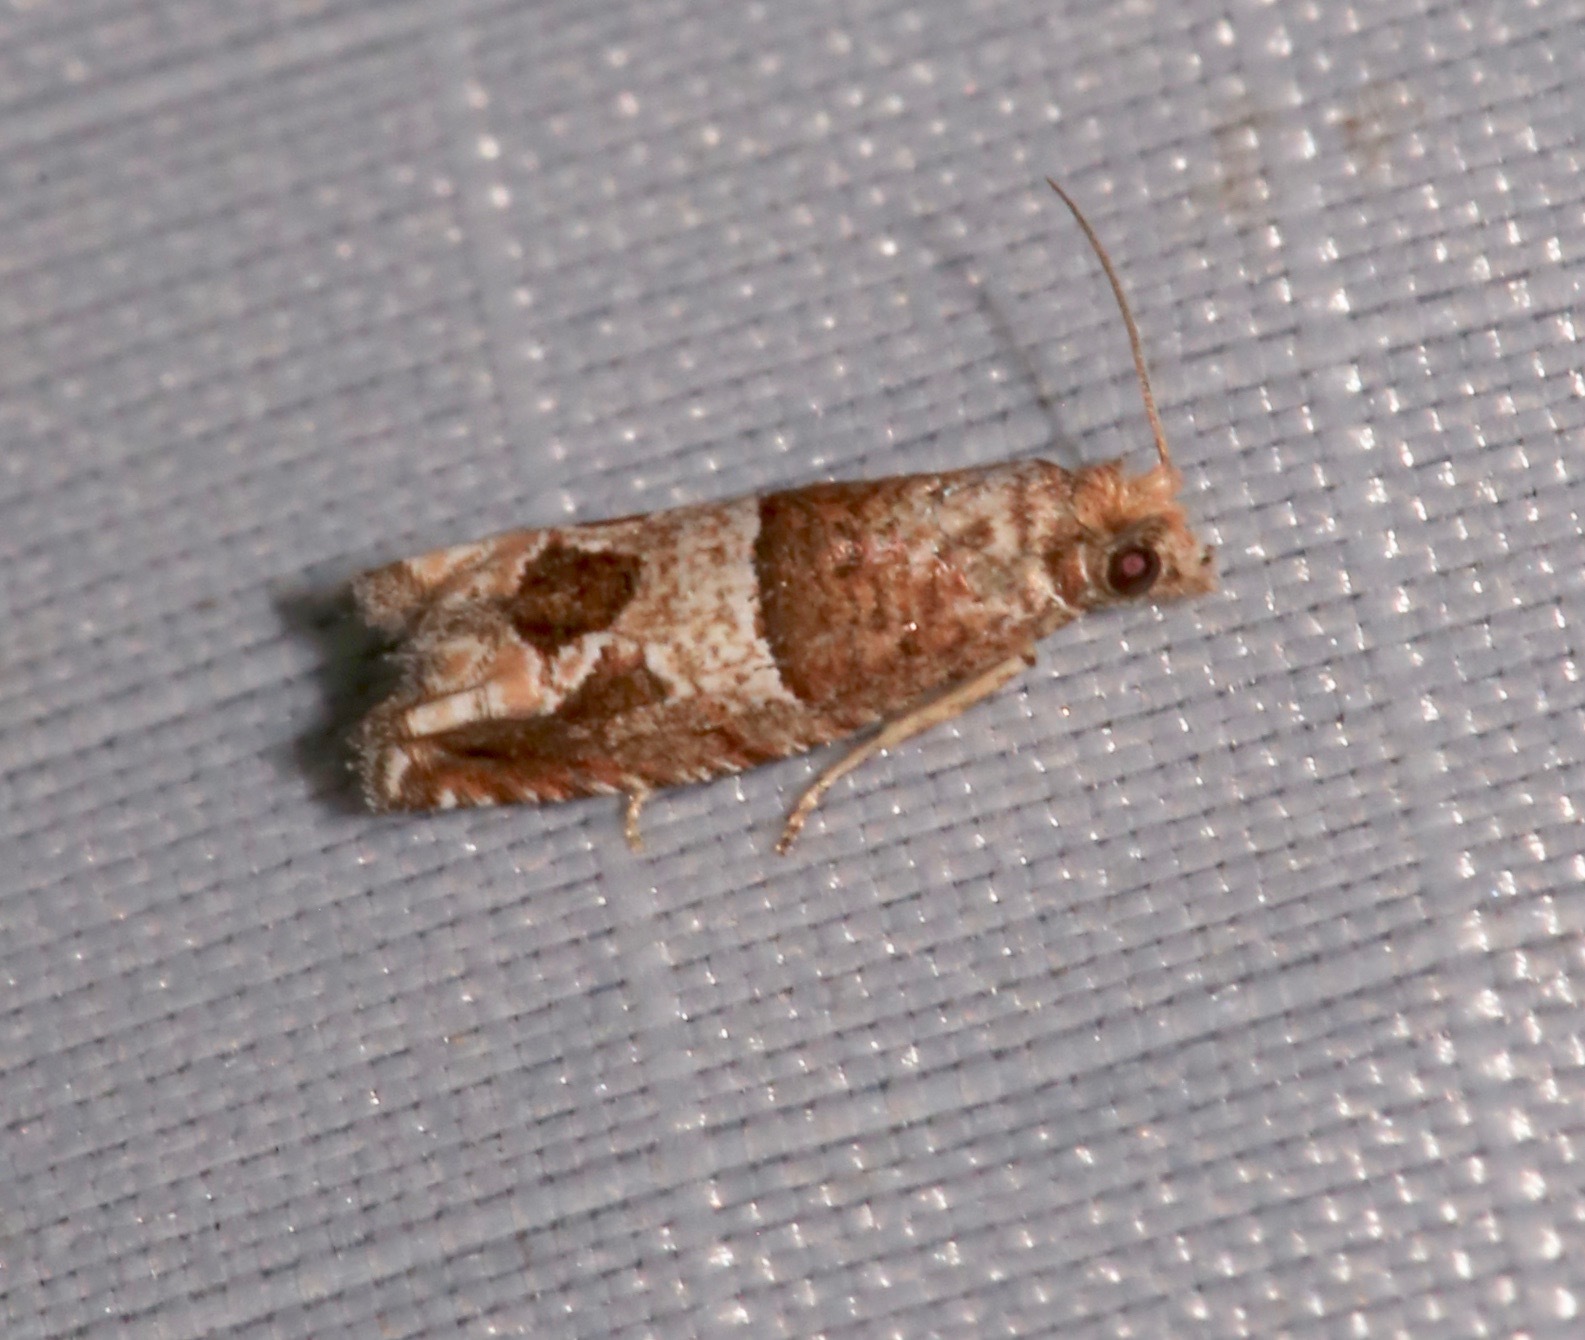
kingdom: Animalia
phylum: Arthropoda
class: Insecta
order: Lepidoptera
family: Tortricidae
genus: Sonia
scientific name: Sonia constrictana
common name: Constricted sonia moth
